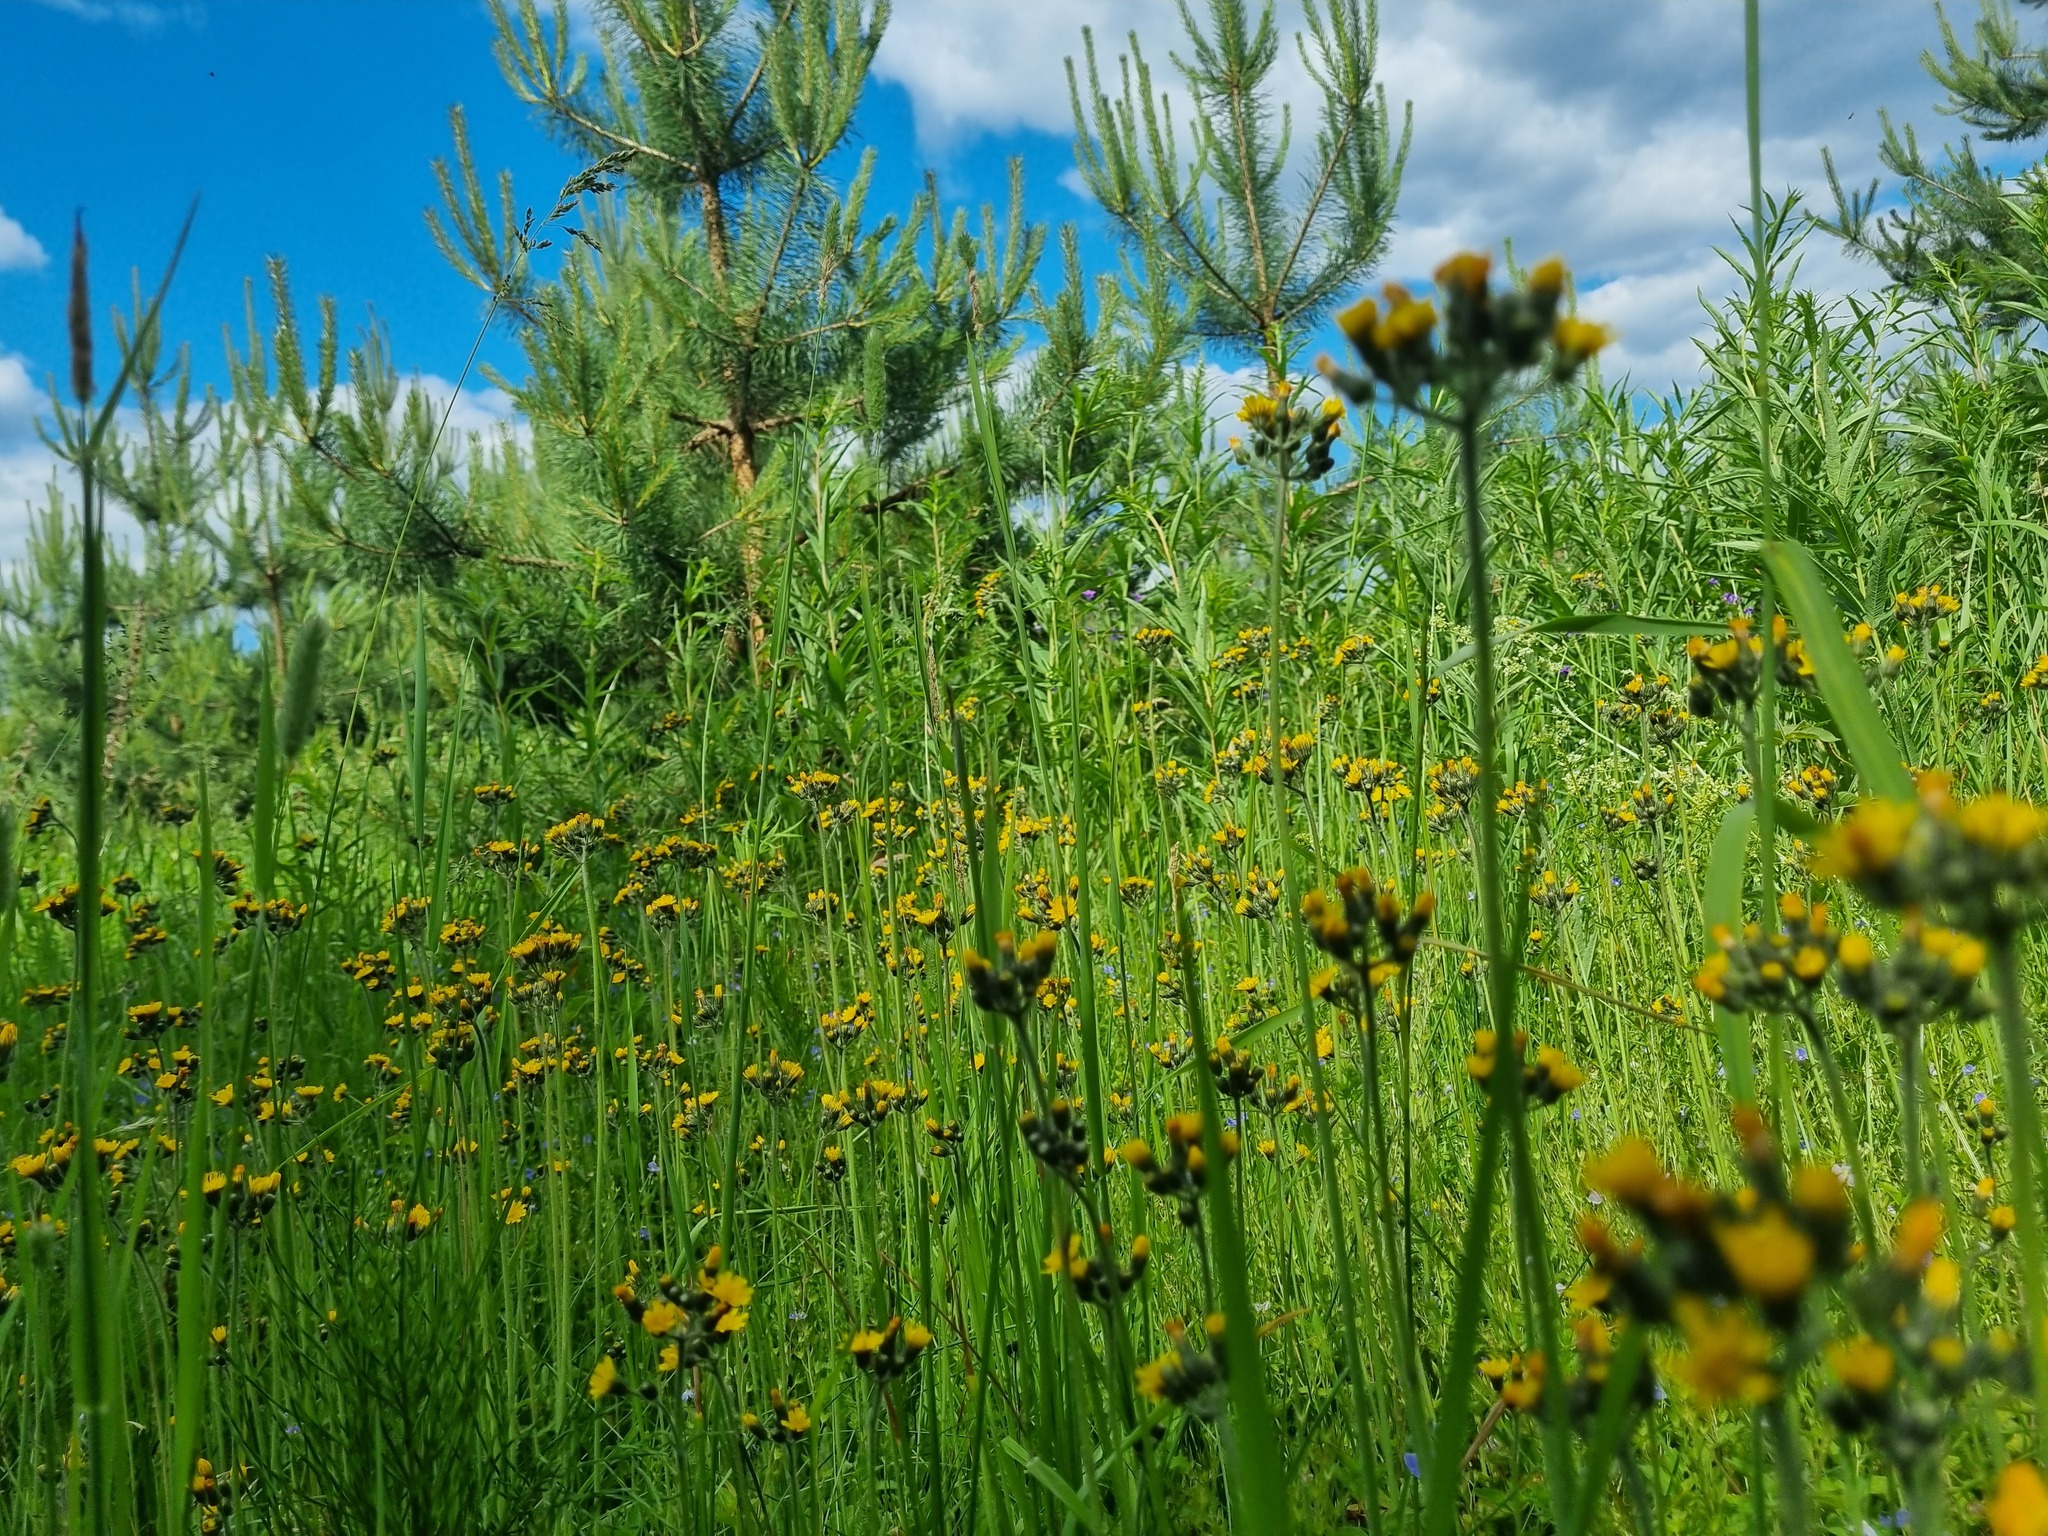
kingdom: Plantae
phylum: Tracheophyta
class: Magnoliopsida
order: Asterales
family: Asteraceae
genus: Pilosella
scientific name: Pilosella
